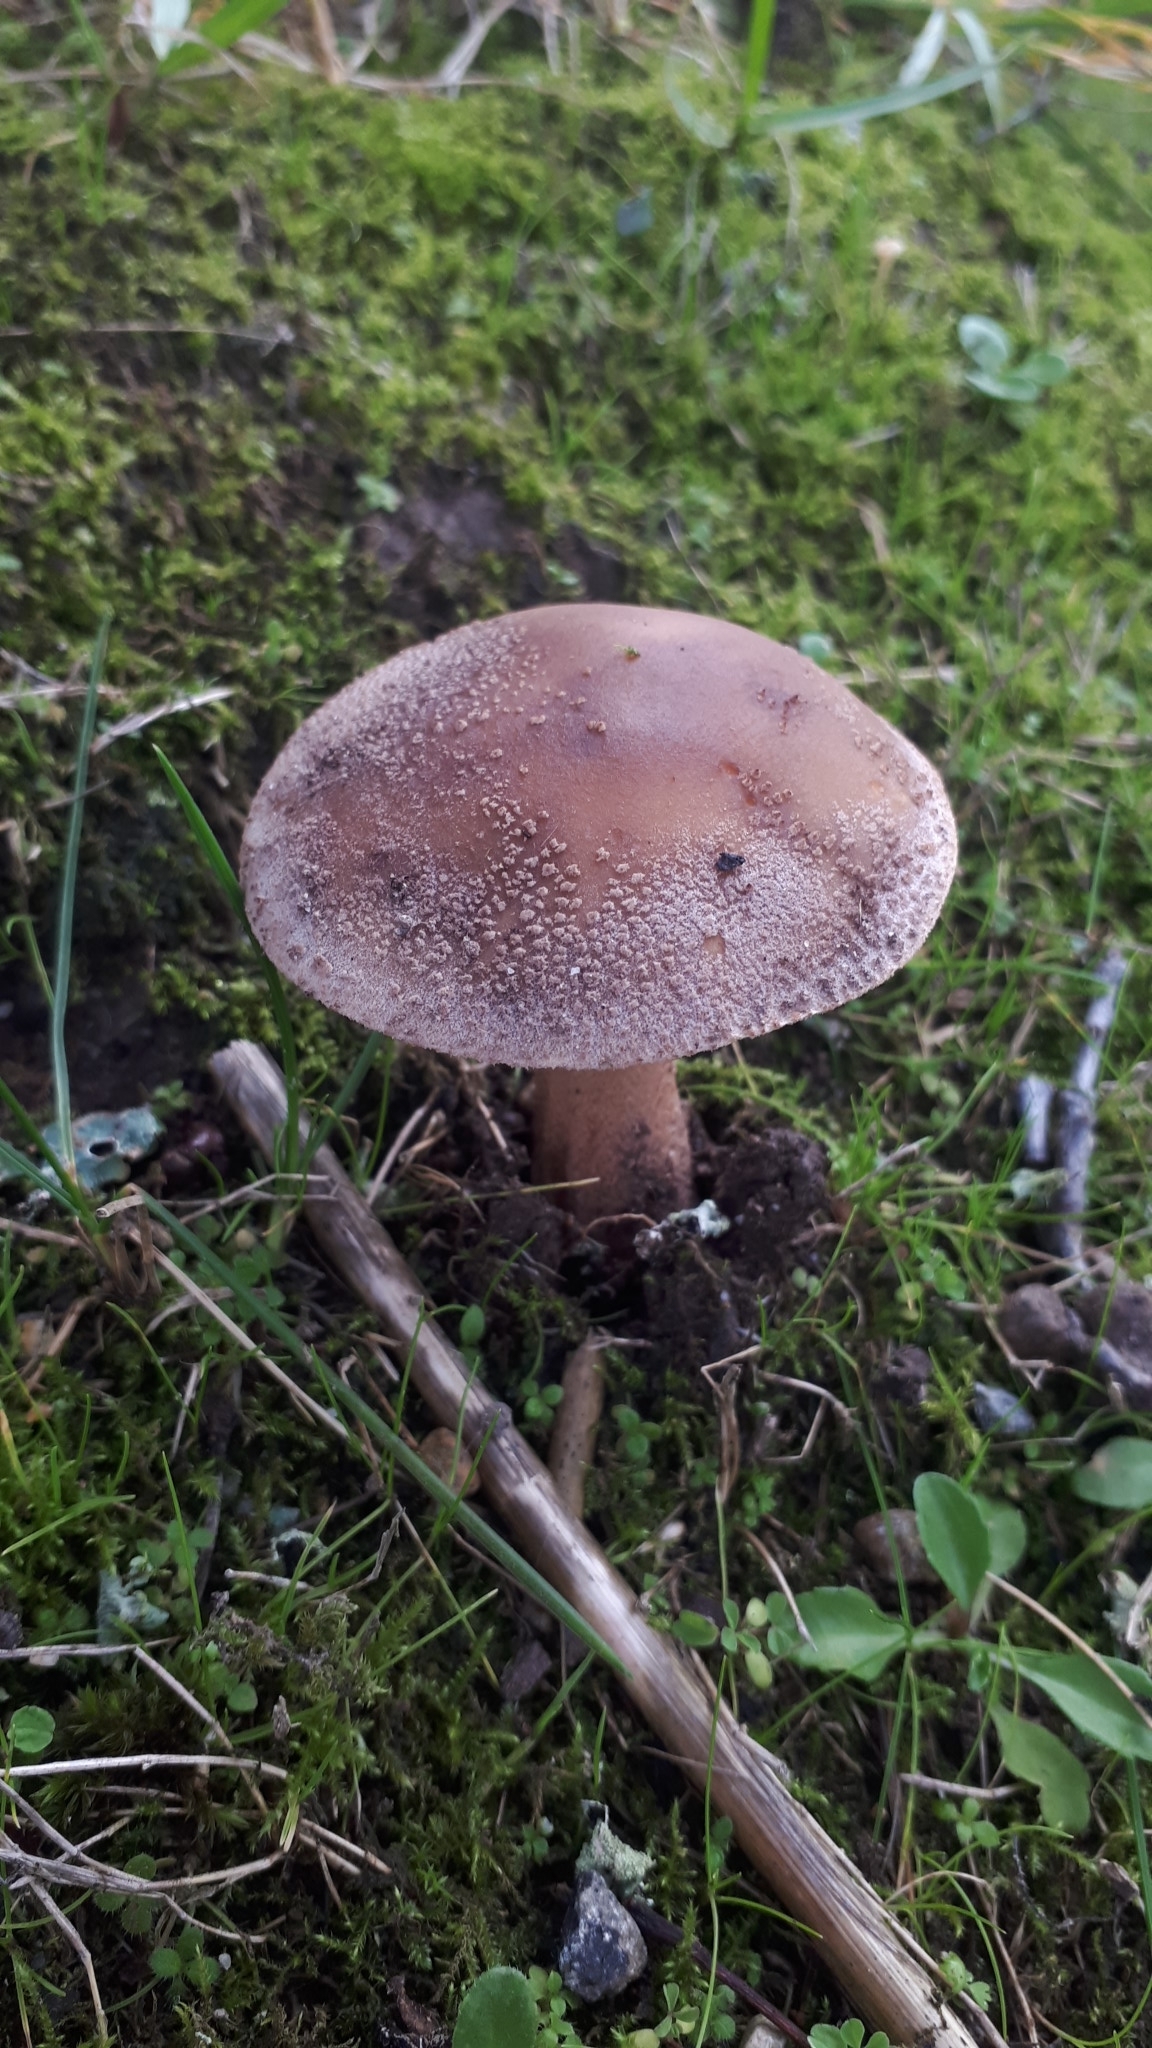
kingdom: Fungi
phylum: Basidiomycota
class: Agaricomycetes
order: Agaricales
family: Amanitaceae
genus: Amanita
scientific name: Amanita rubescens
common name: Blusher
